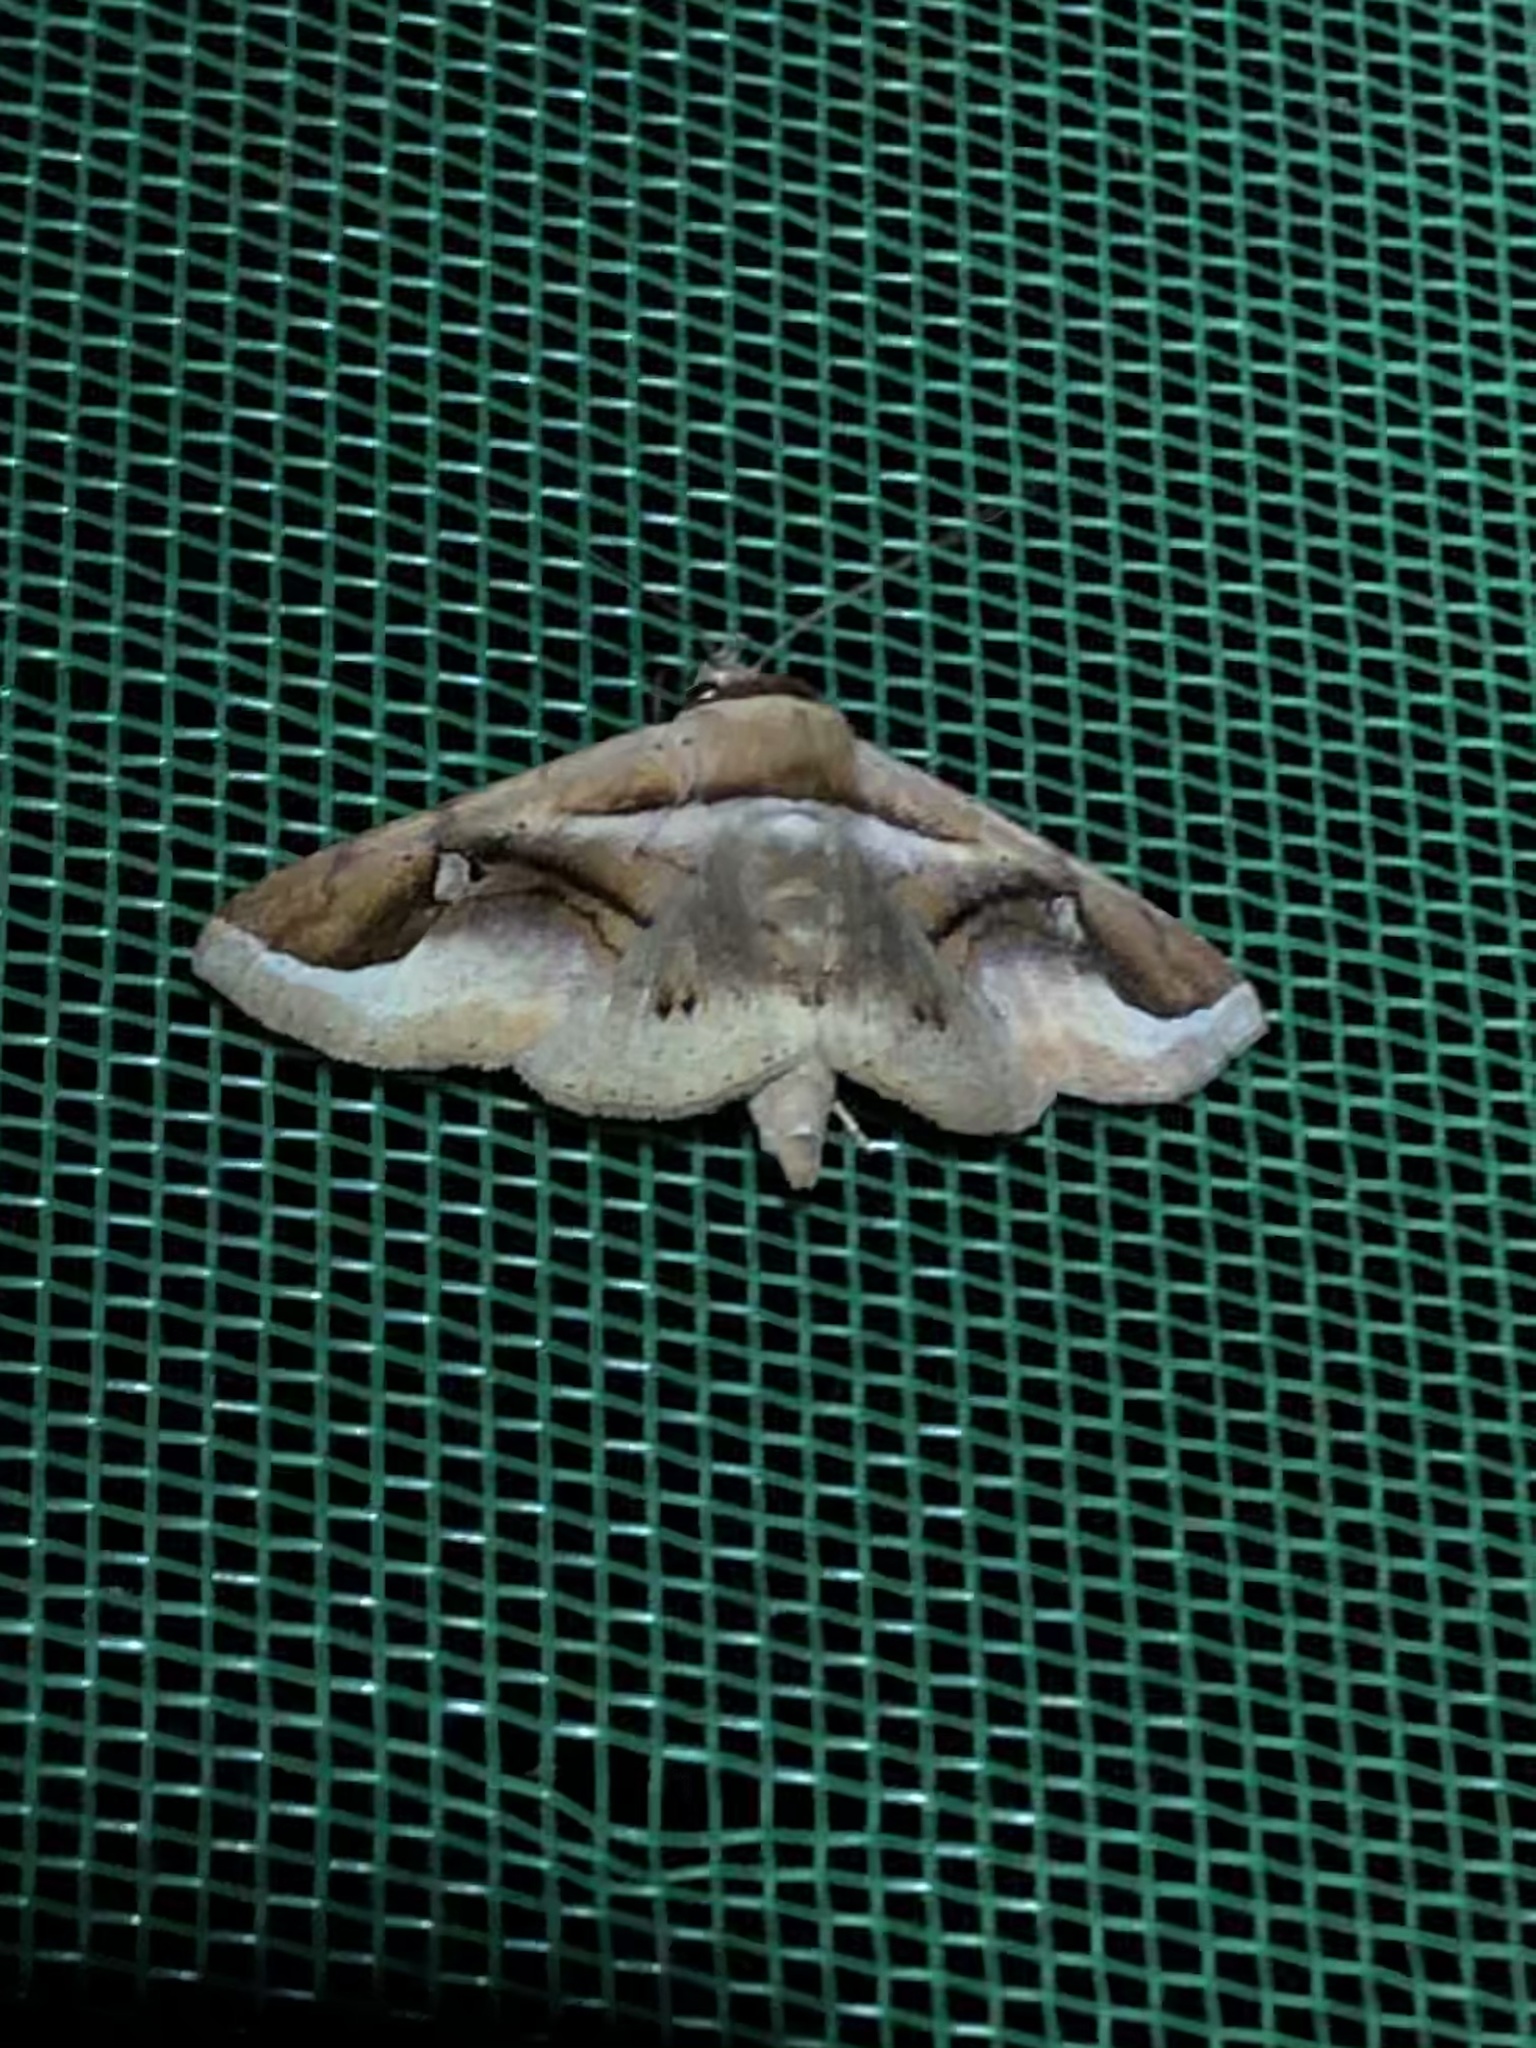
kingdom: Animalia
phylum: Arthropoda
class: Insecta
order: Lepidoptera
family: Erebidae
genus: Massala
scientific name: Massala quassa
